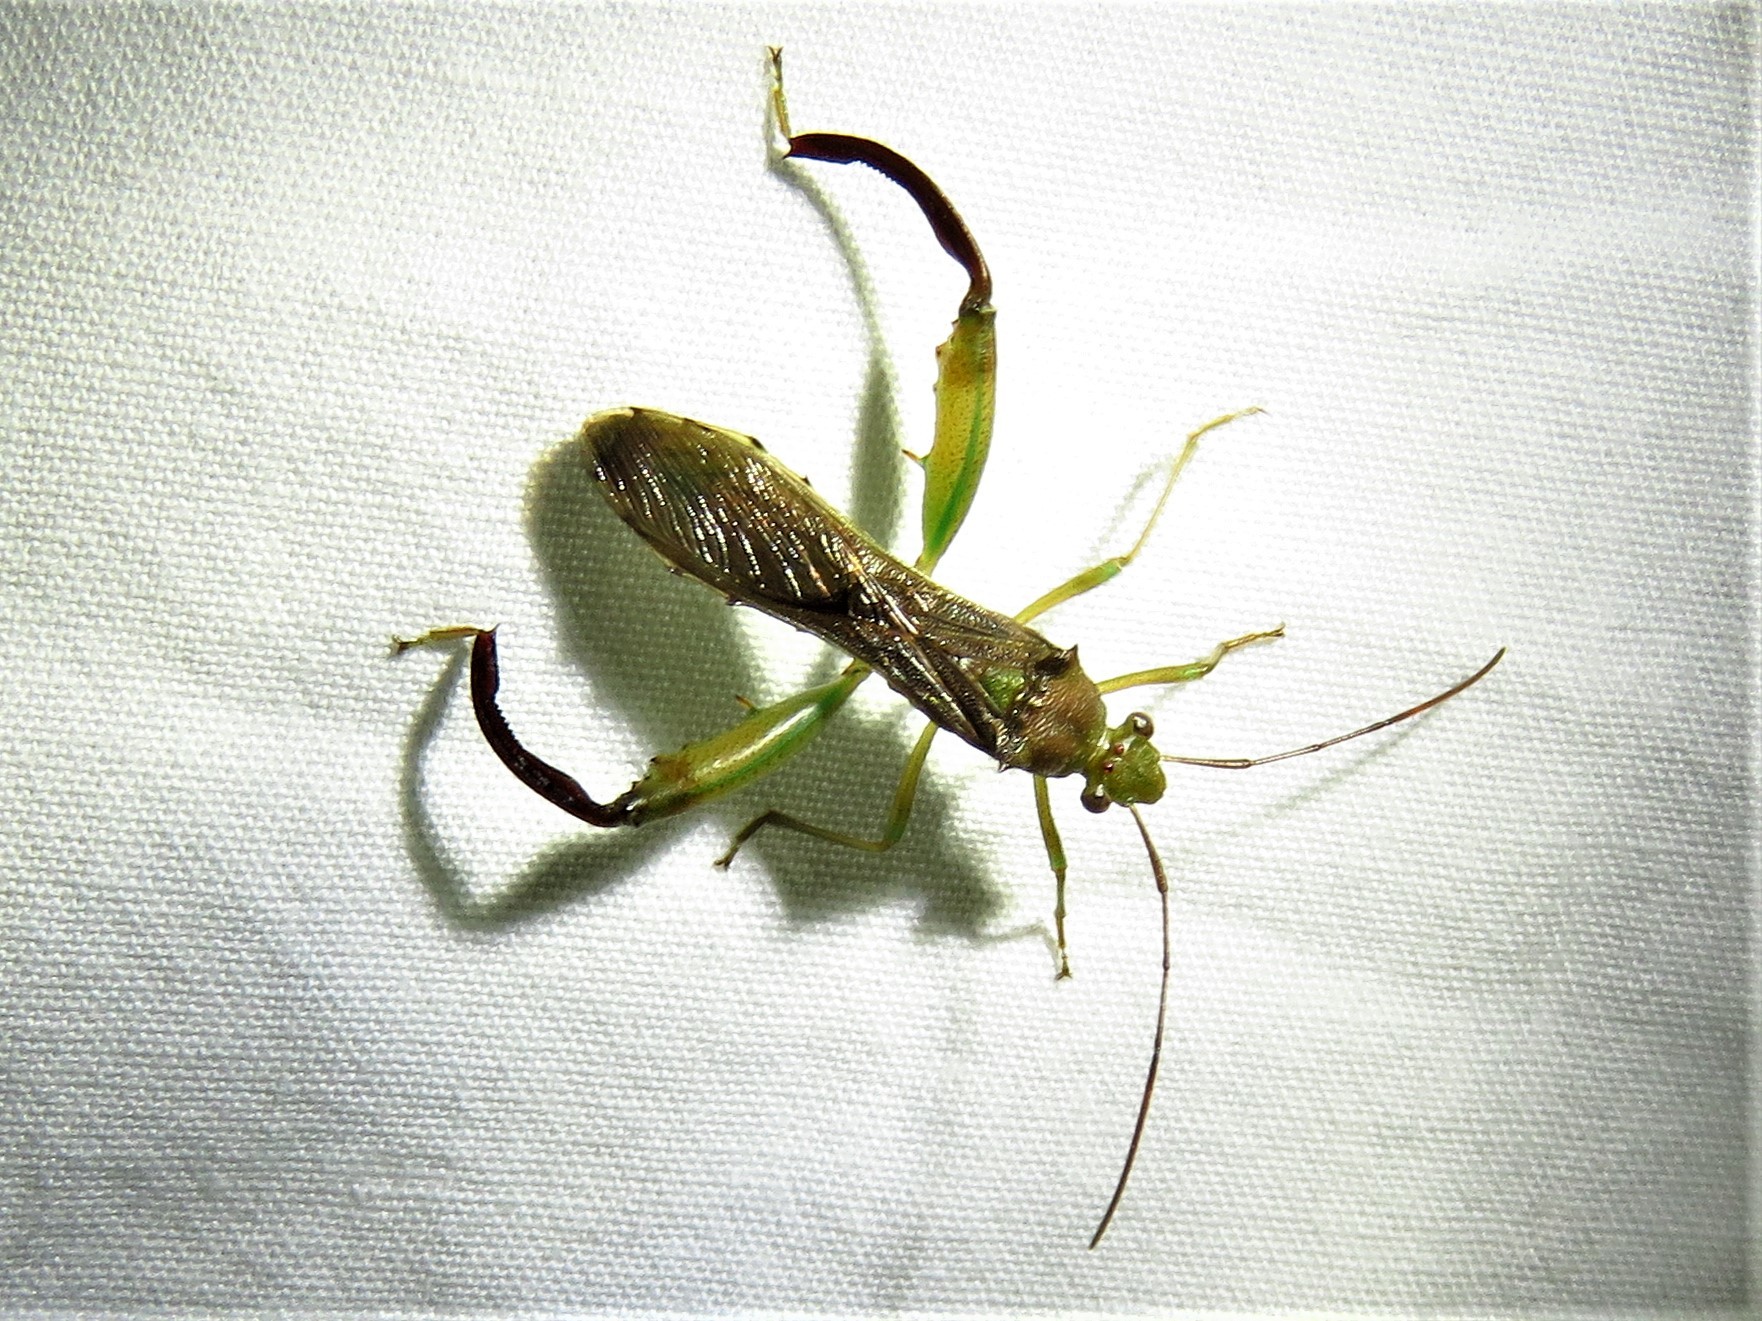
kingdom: Animalia
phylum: Arthropoda
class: Insecta
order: Hemiptera
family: Alydidae
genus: Hyalymenus
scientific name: Hyalymenus tarsatus
